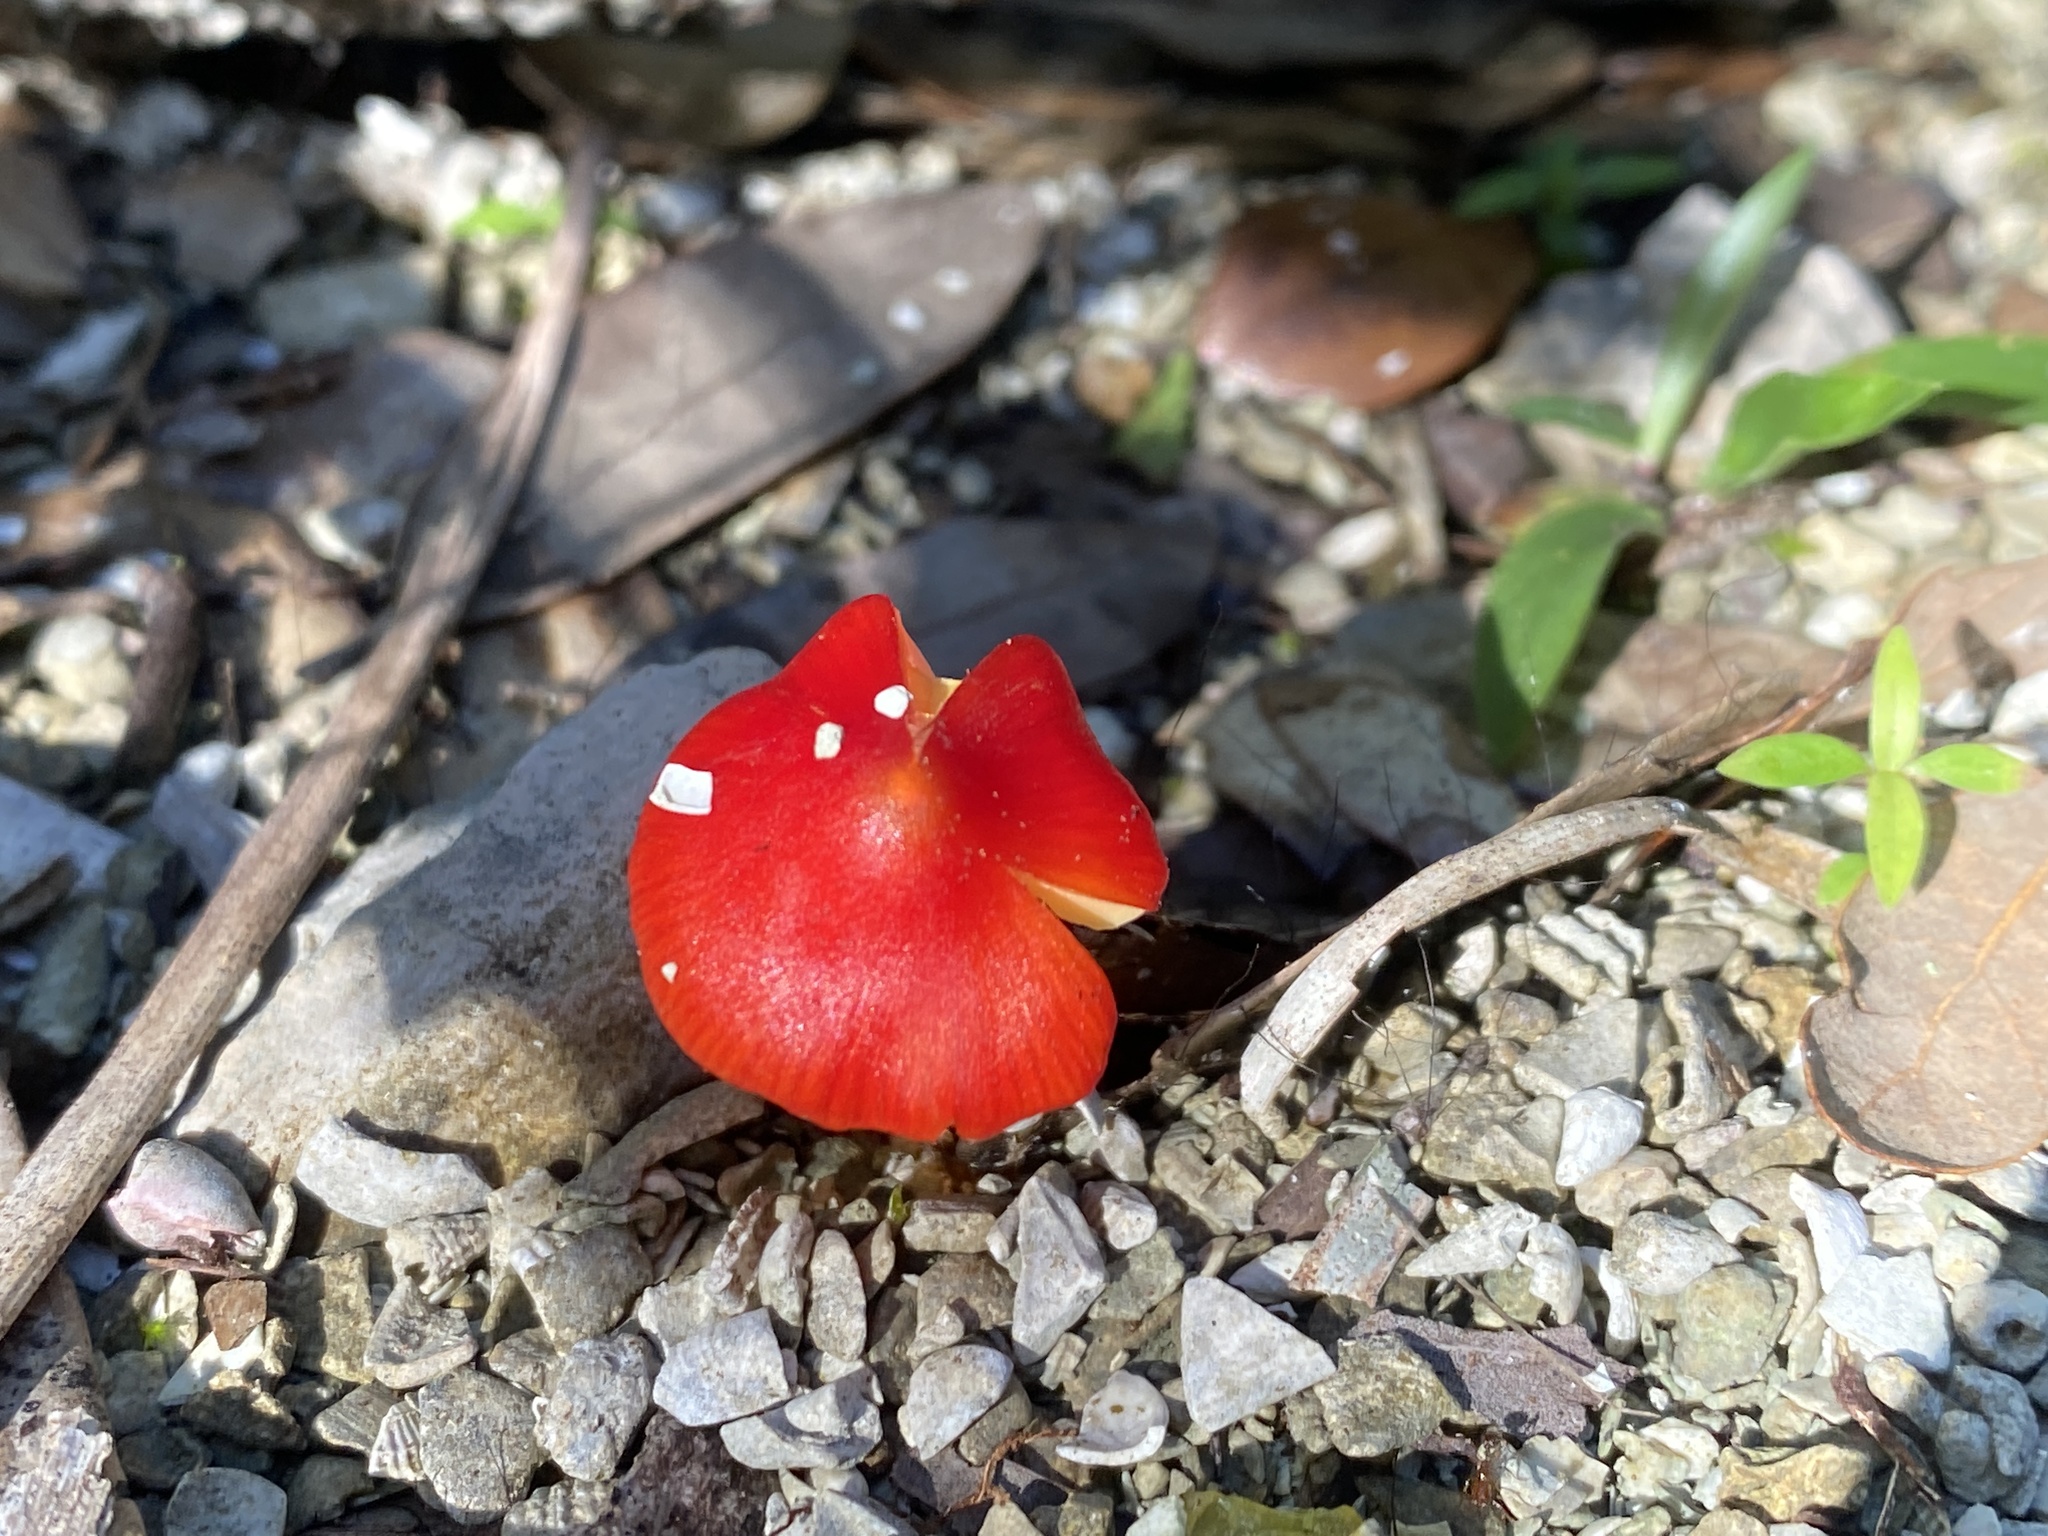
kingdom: Fungi
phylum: Basidiomycota
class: Agaricomycetes
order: Agaricales
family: Hygrophoraceae
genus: Hygrocybe
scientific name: Hygrocybe conica
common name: Blackening wax-cap
